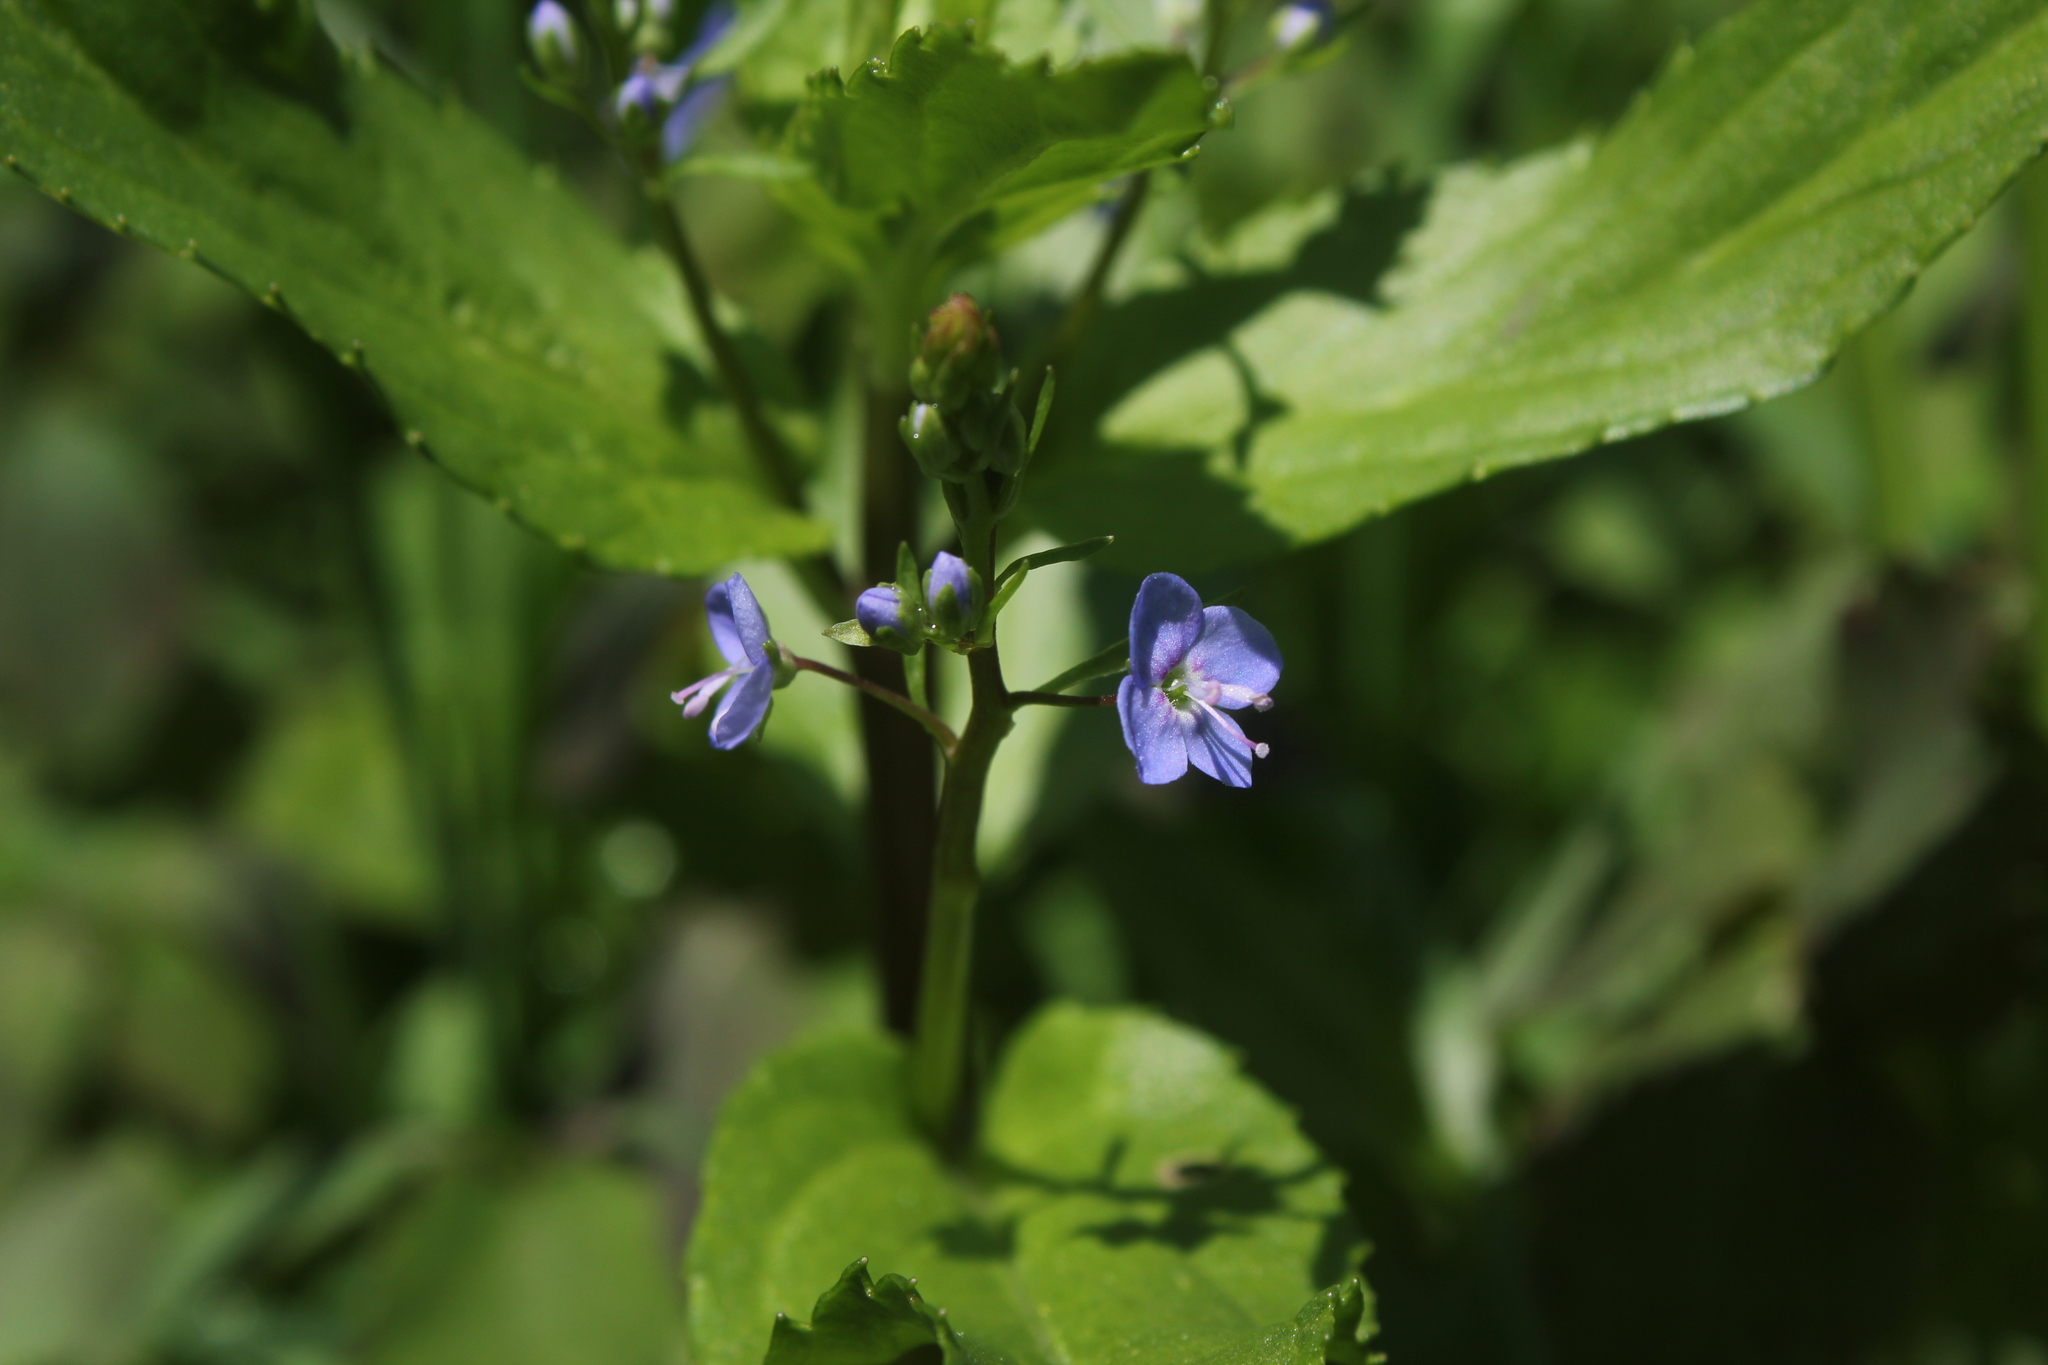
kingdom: Plantae
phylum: Tracheophyta
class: Magnoliopsida
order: Lamiales
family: Plantaginaceae
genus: Veronica
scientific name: Veronica americana
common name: American brooklime
